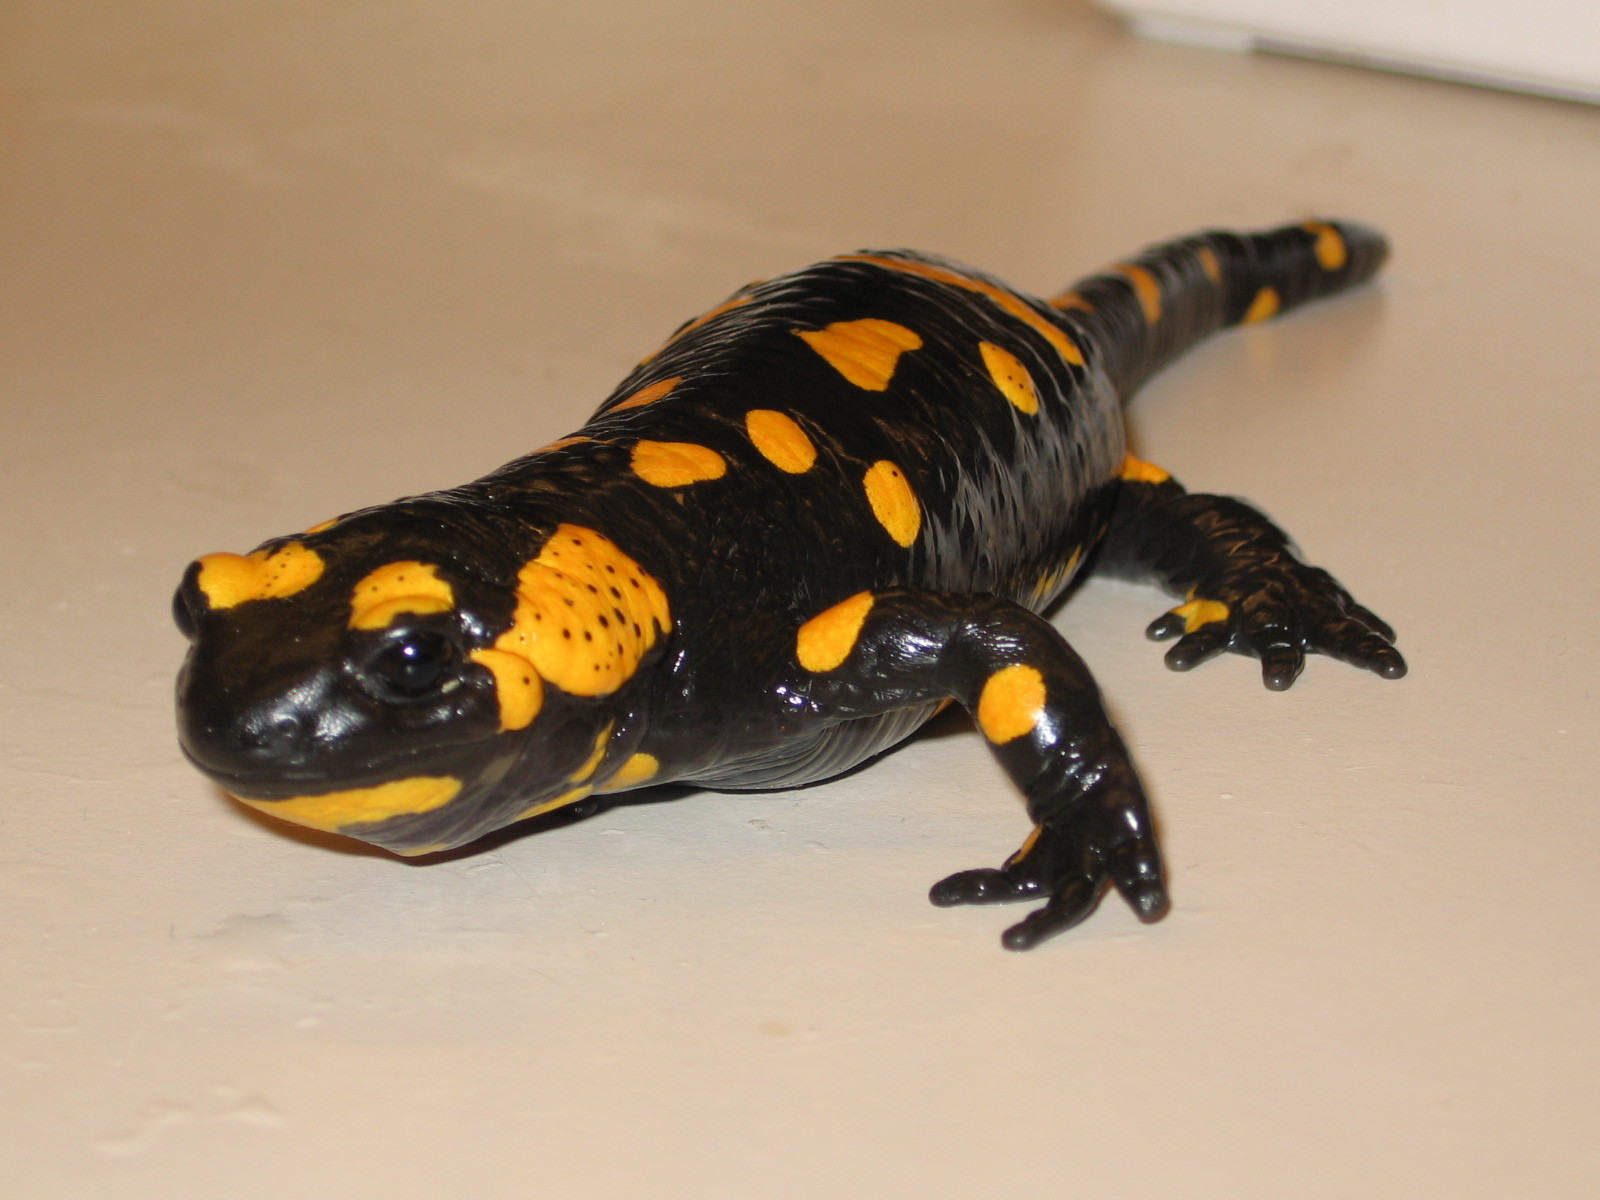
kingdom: Animalia
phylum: Chordata
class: Amphibia
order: Caudata
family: Salamandridae
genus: Salamandra
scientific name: Salamandra salamandra
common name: Fire salamander
